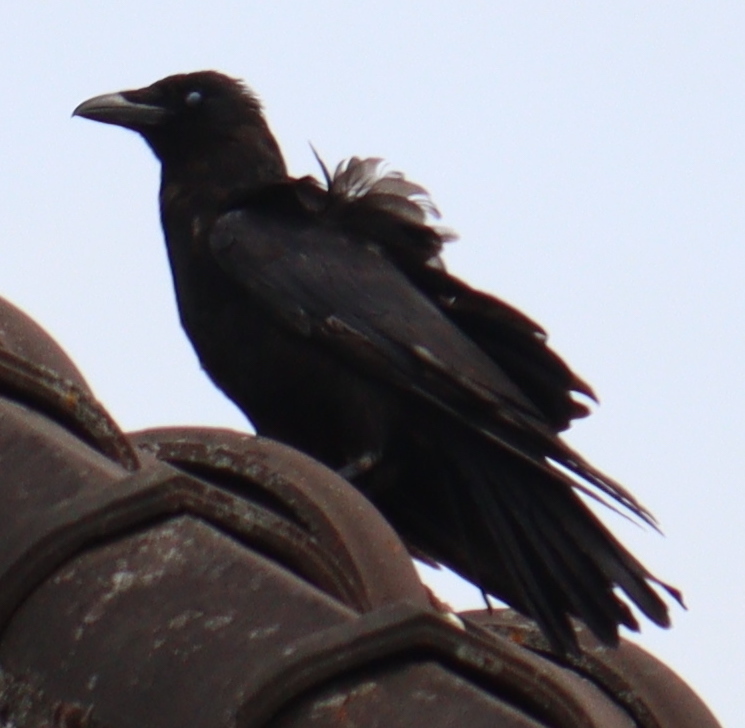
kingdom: Animalia
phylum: Chordata
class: Aves
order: Passeriformes
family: Corvidae
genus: Corvus
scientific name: Corvus corone
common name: Carrion crow
